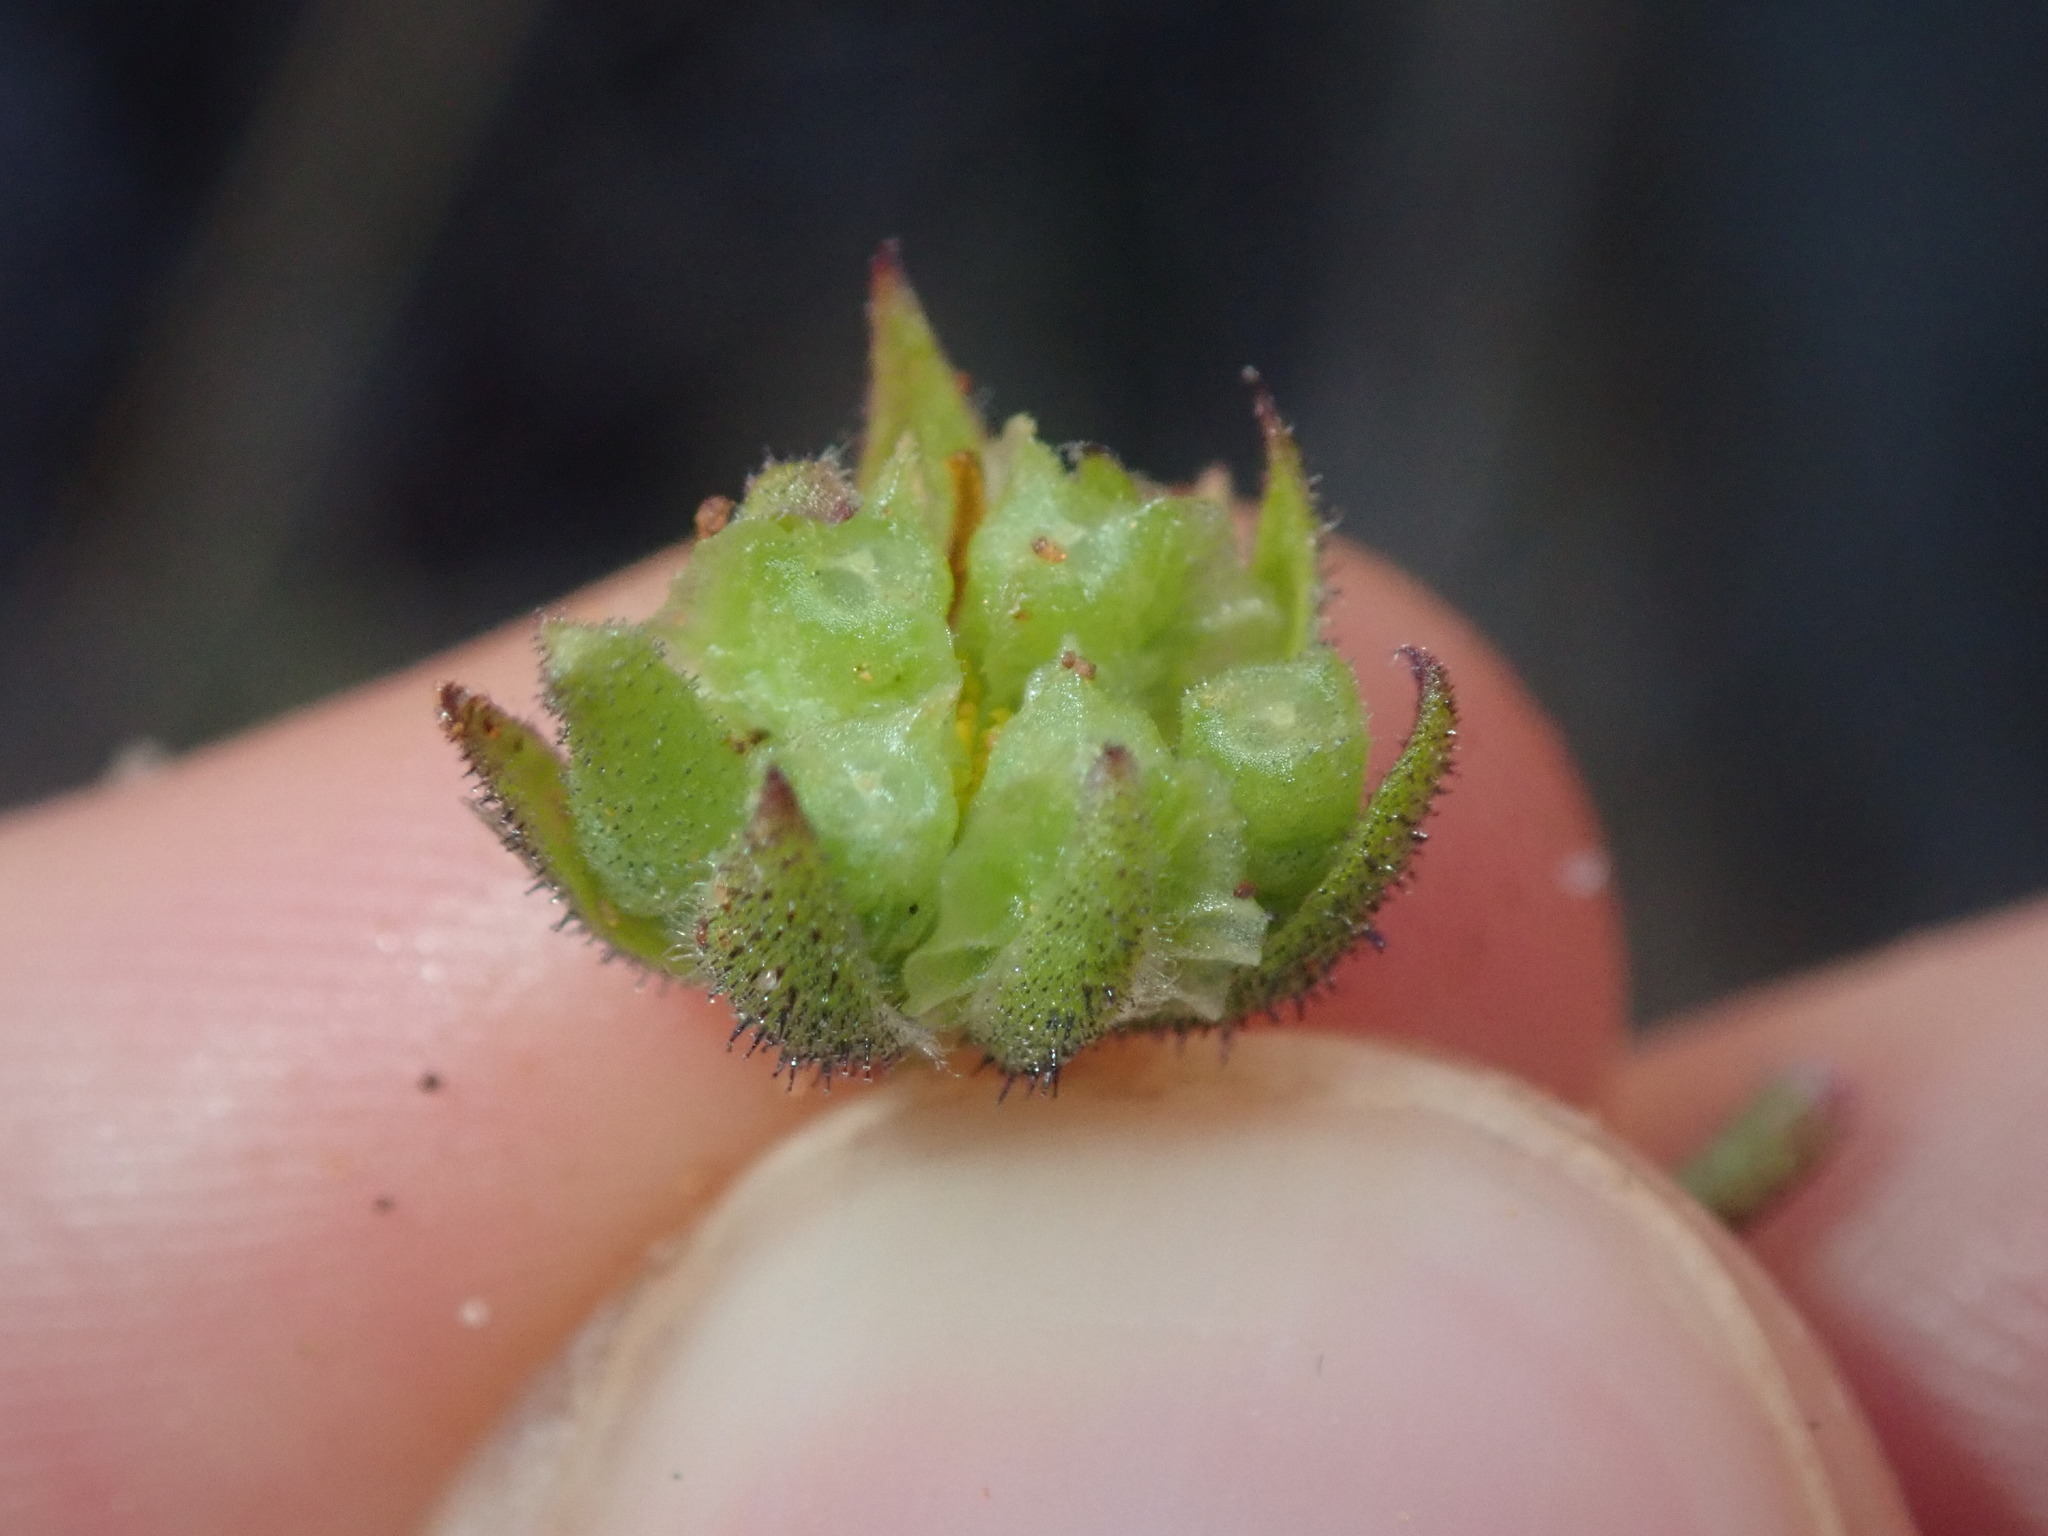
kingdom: Plantae
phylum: Tracheophyta
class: Magnoliopsida
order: Asterales
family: Asteraceae
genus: Osteospermum
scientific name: Osteospermum calendulaceum
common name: Stinking roger
